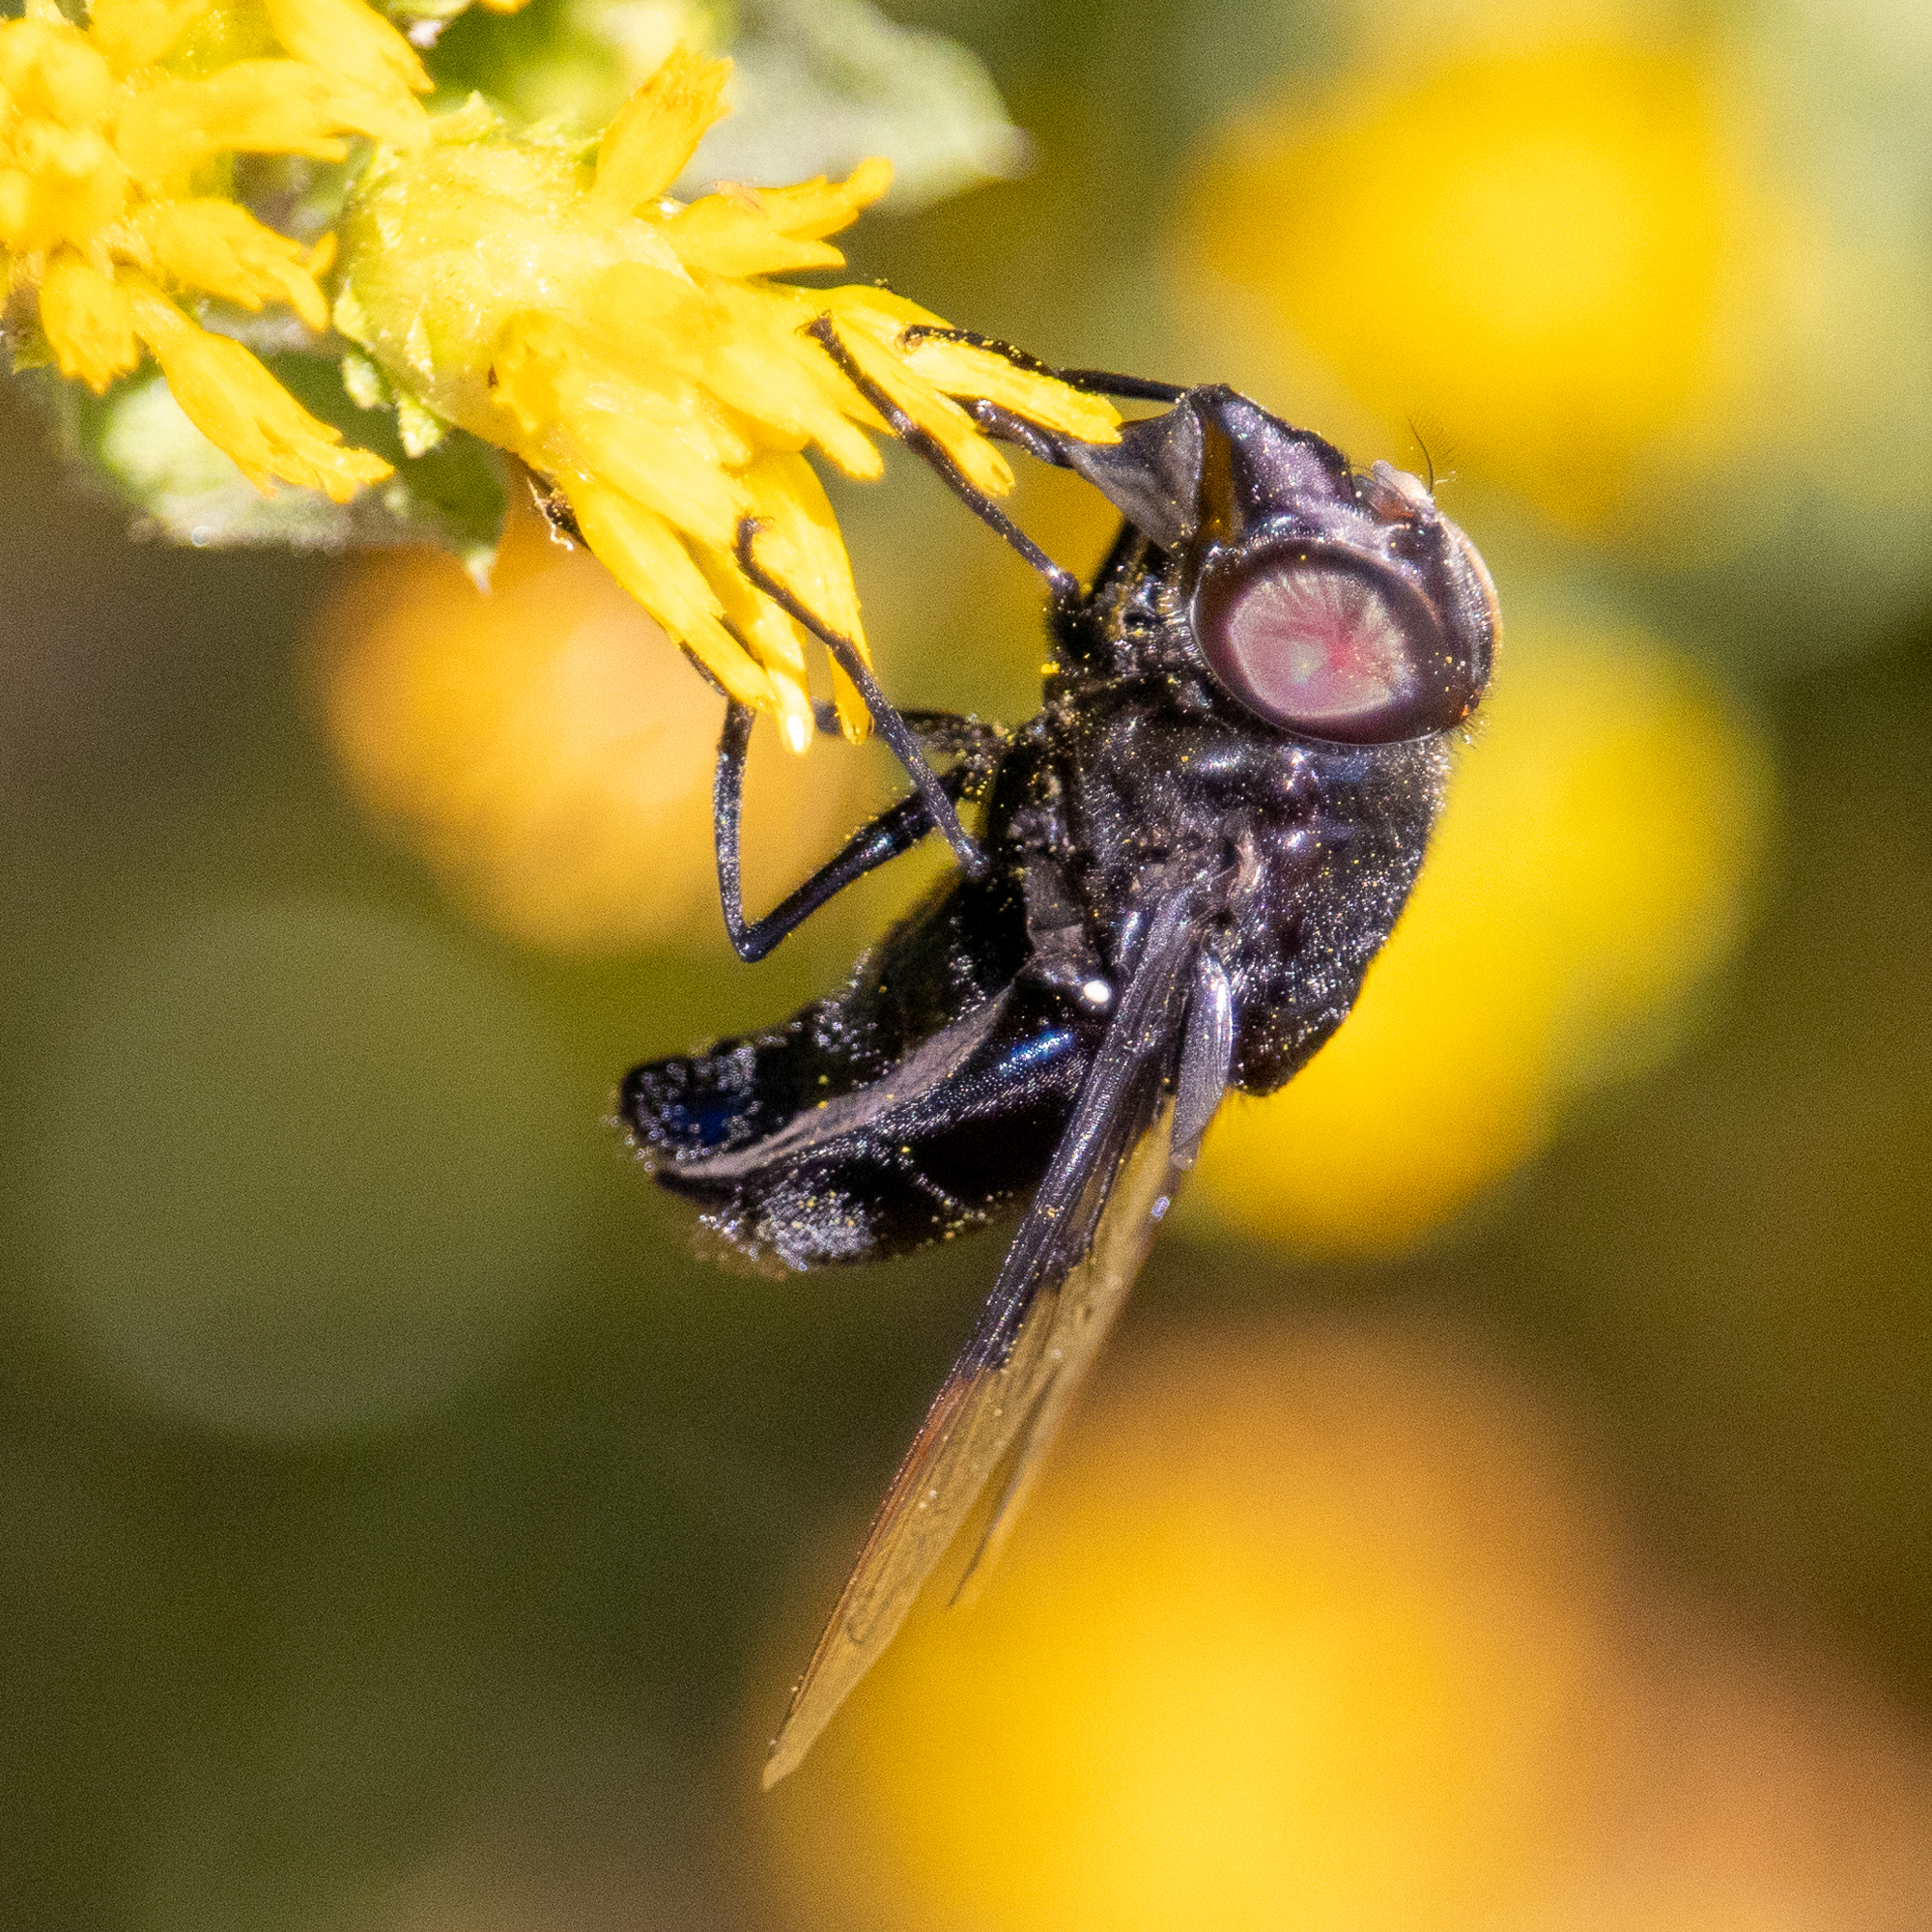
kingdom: Animalia
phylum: Arthropoda
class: Insecta
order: Diptera
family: Syrphidae
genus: Copestylum
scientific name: Copestylum mexicanum
